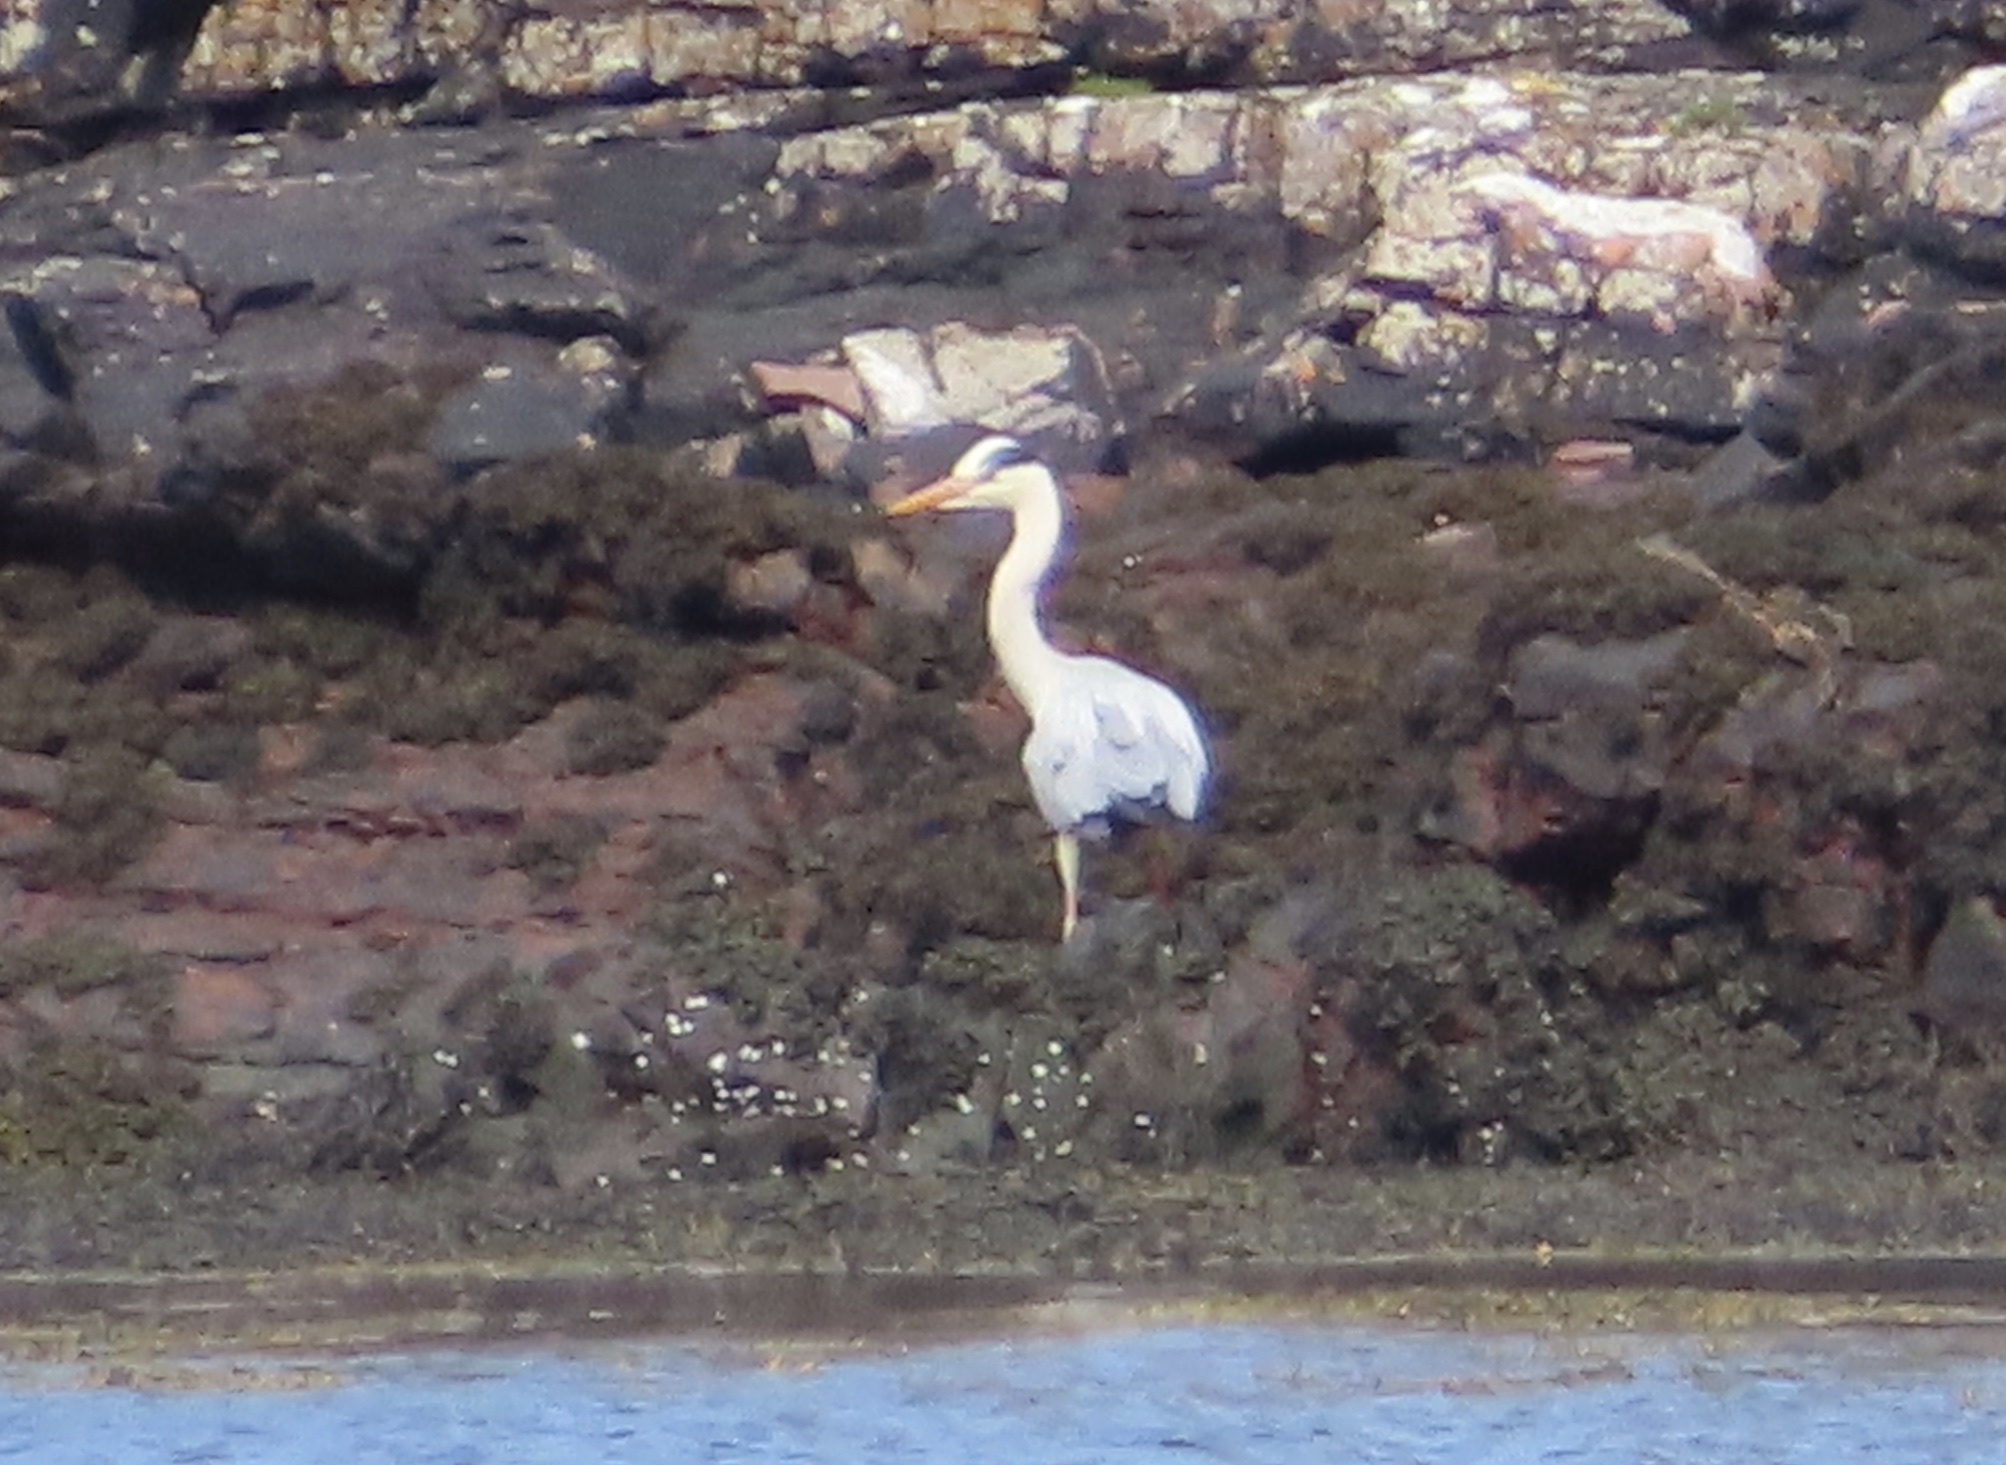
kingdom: Animalia
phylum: Chordata
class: Aves
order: Pelecaniformes
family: Ardeidae
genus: Ardea
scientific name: Ardea cinerea
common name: Grey heron
